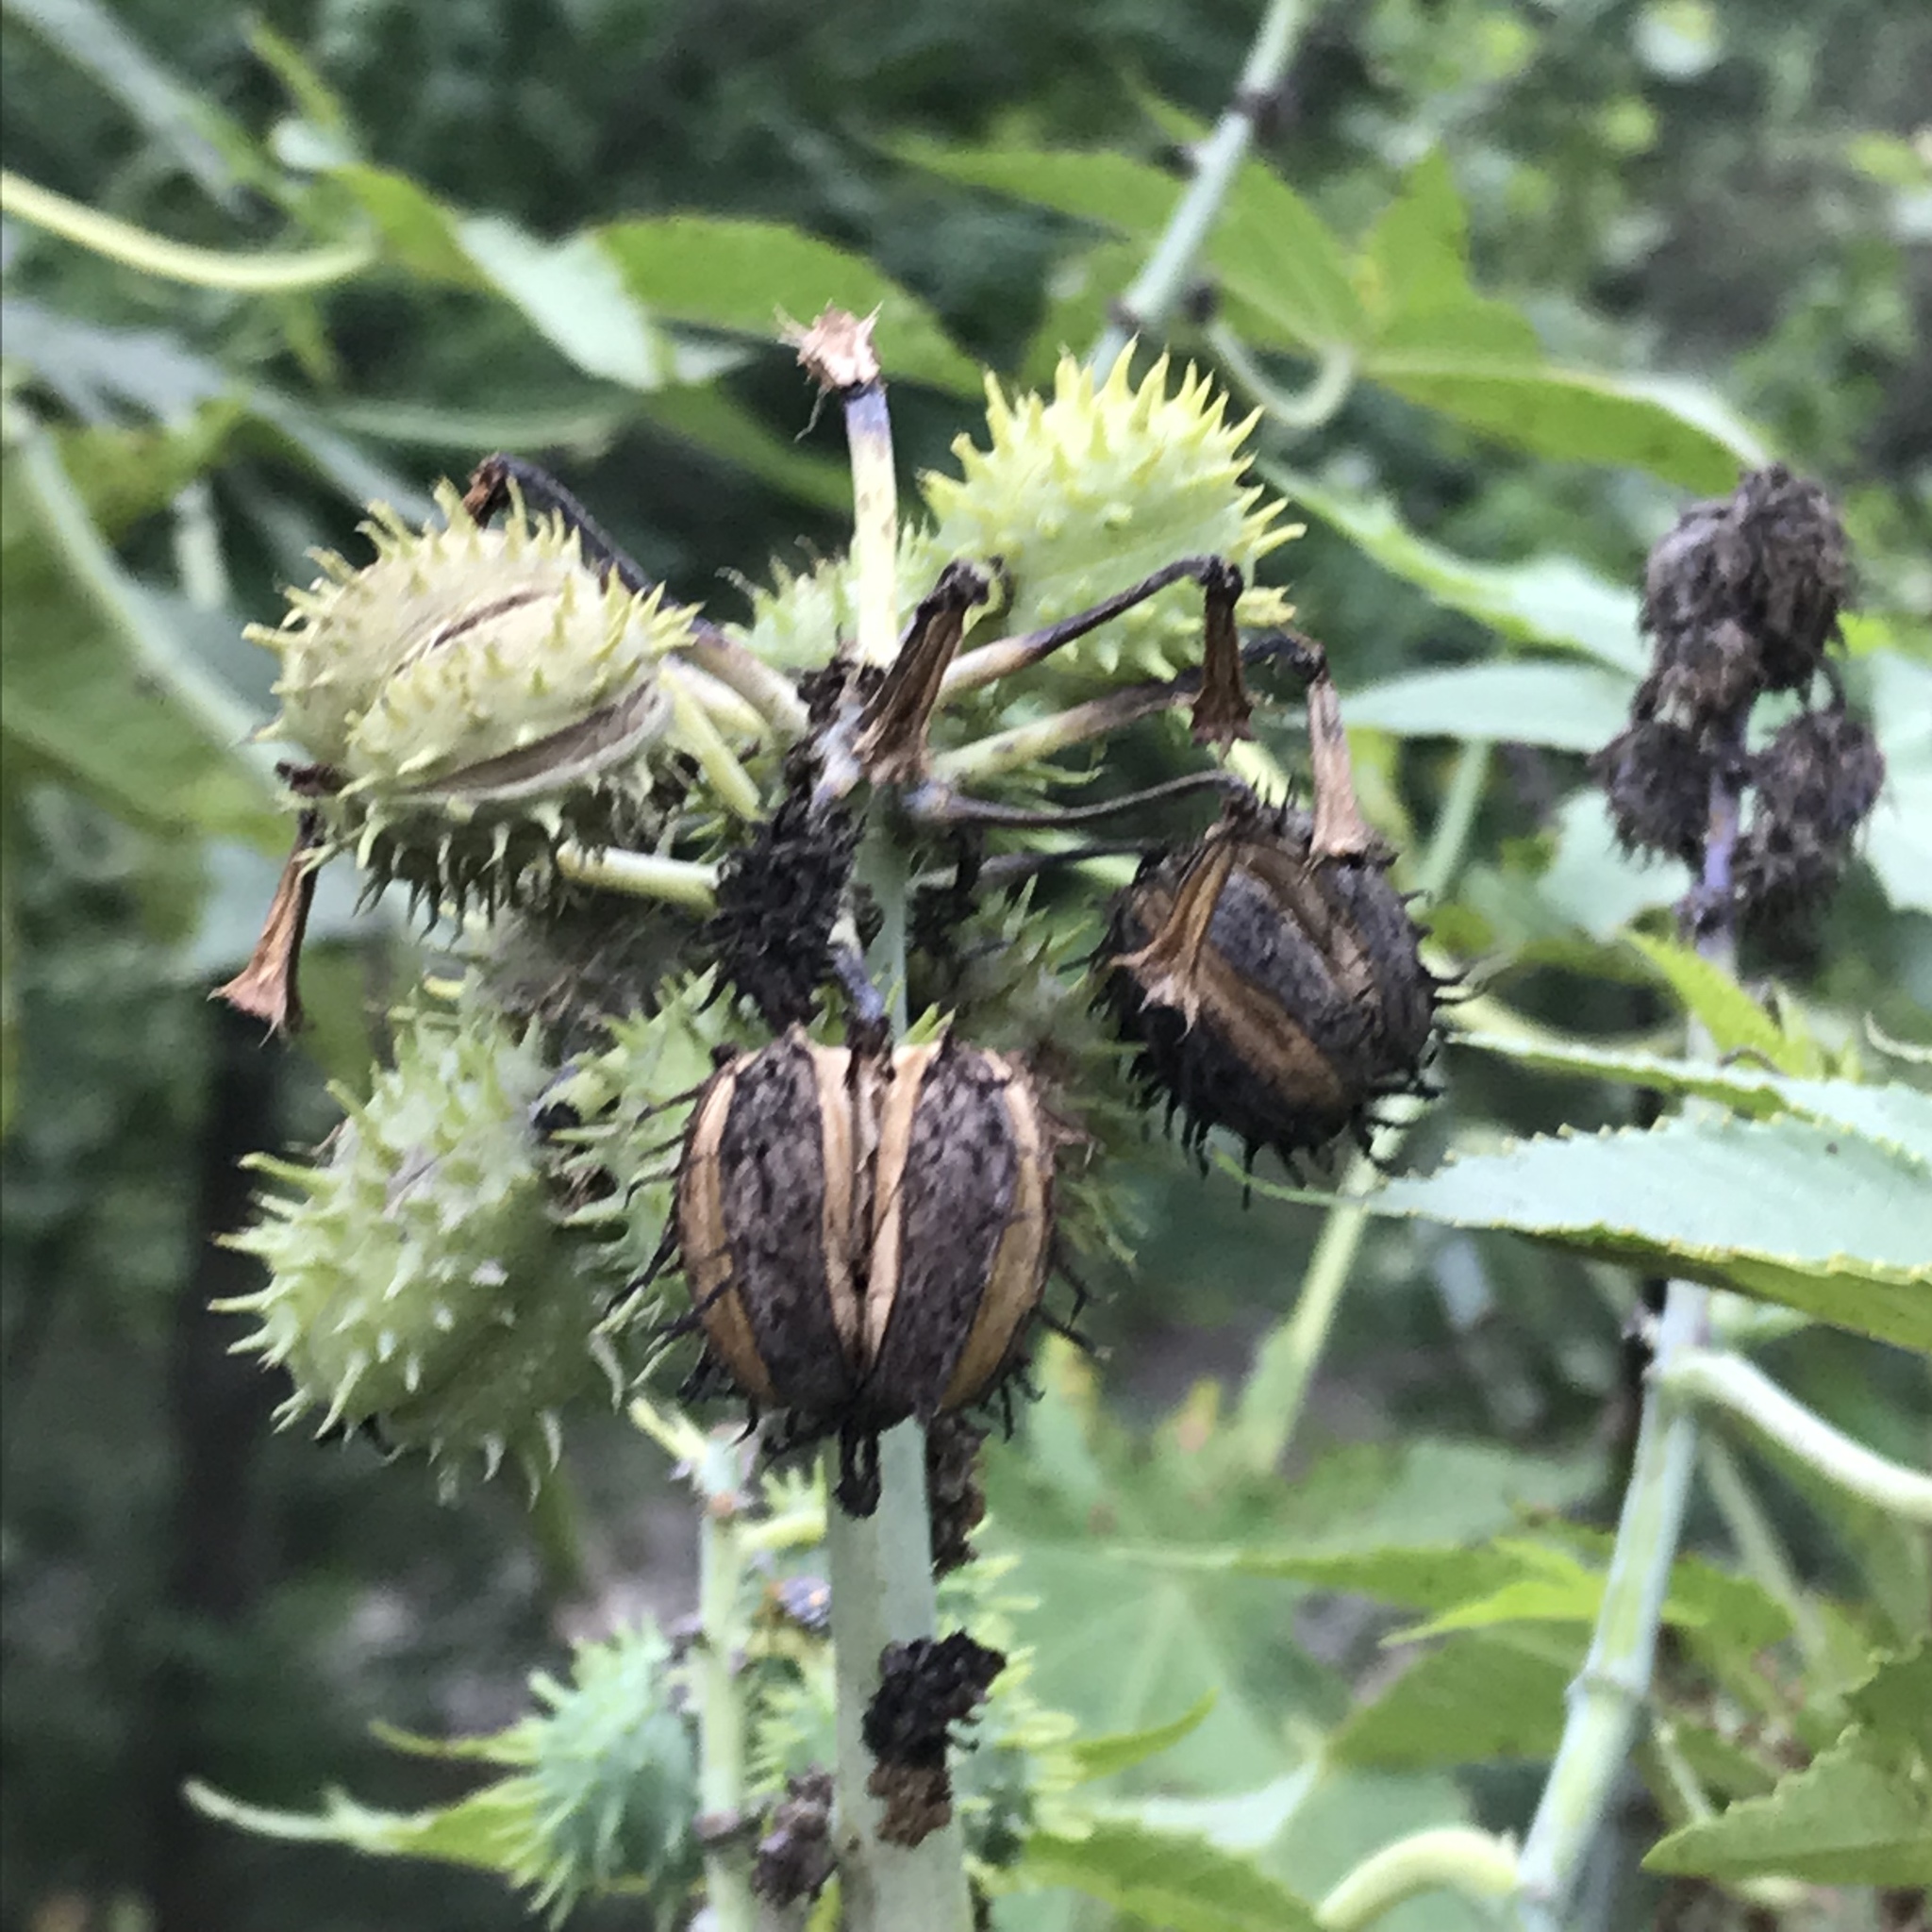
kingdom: Plantae
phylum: Tracheophyta
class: Magnoliopsida
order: Malpighiales
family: Euphorbiaceae
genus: Ricinus
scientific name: Ricinus communis
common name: Castor-oil-plant
